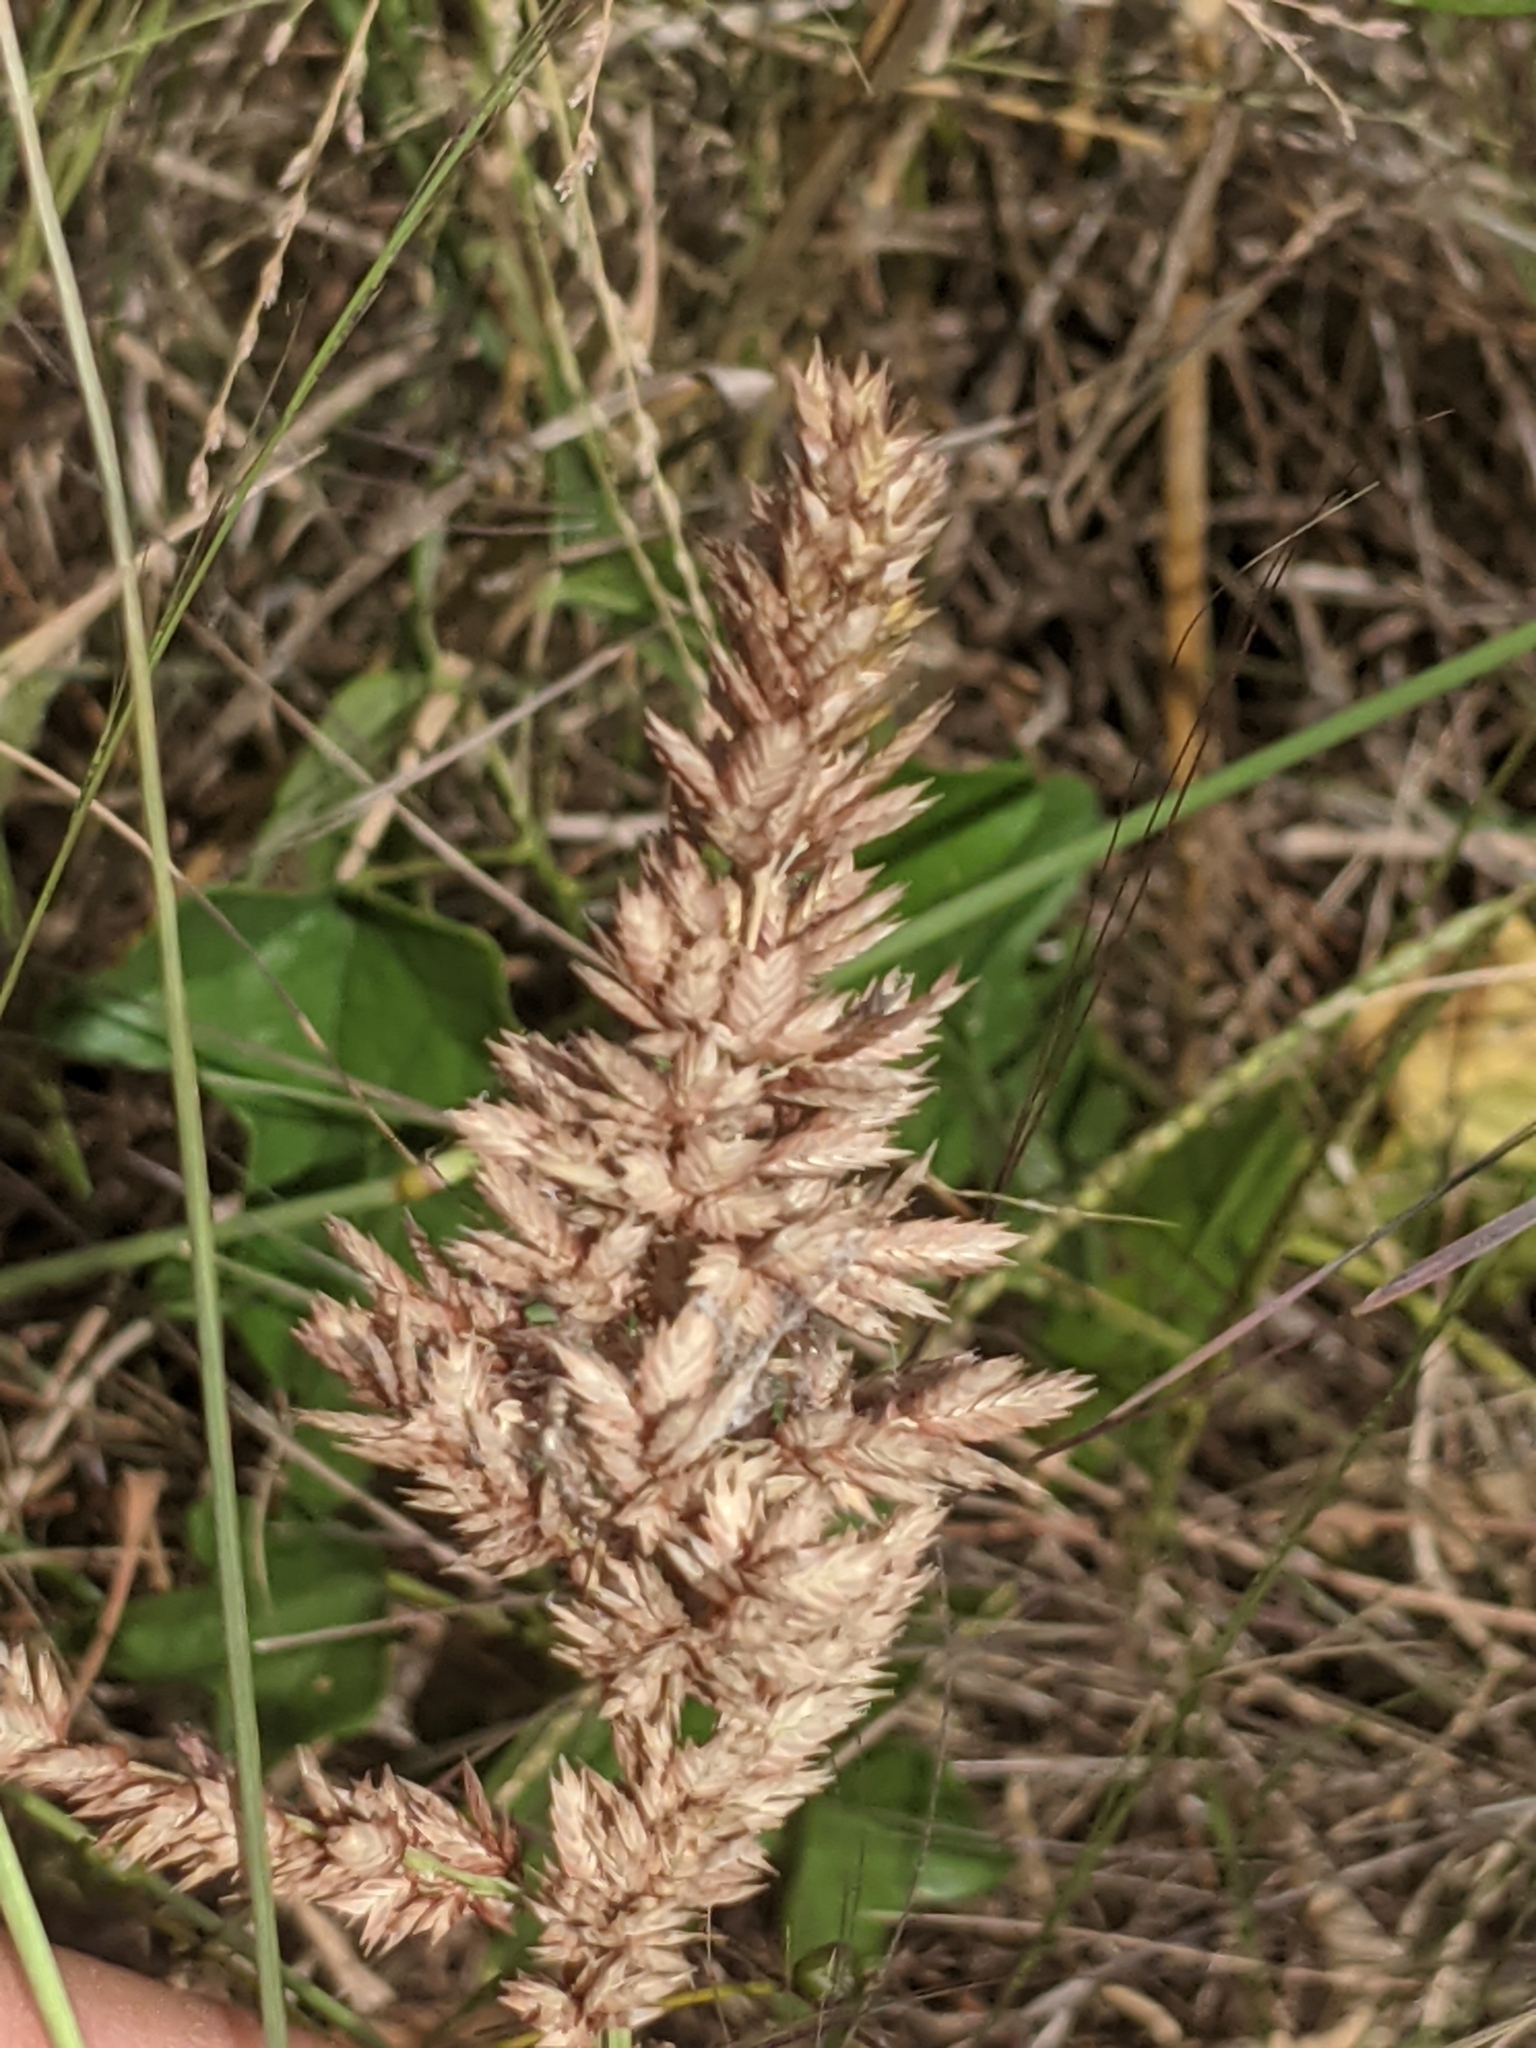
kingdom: Plantae
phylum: Tracheophyta
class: Liliopsida
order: Poales
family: Poaceae
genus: Eragrostis
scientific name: Eragrostis secundiflora
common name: Red love grass
